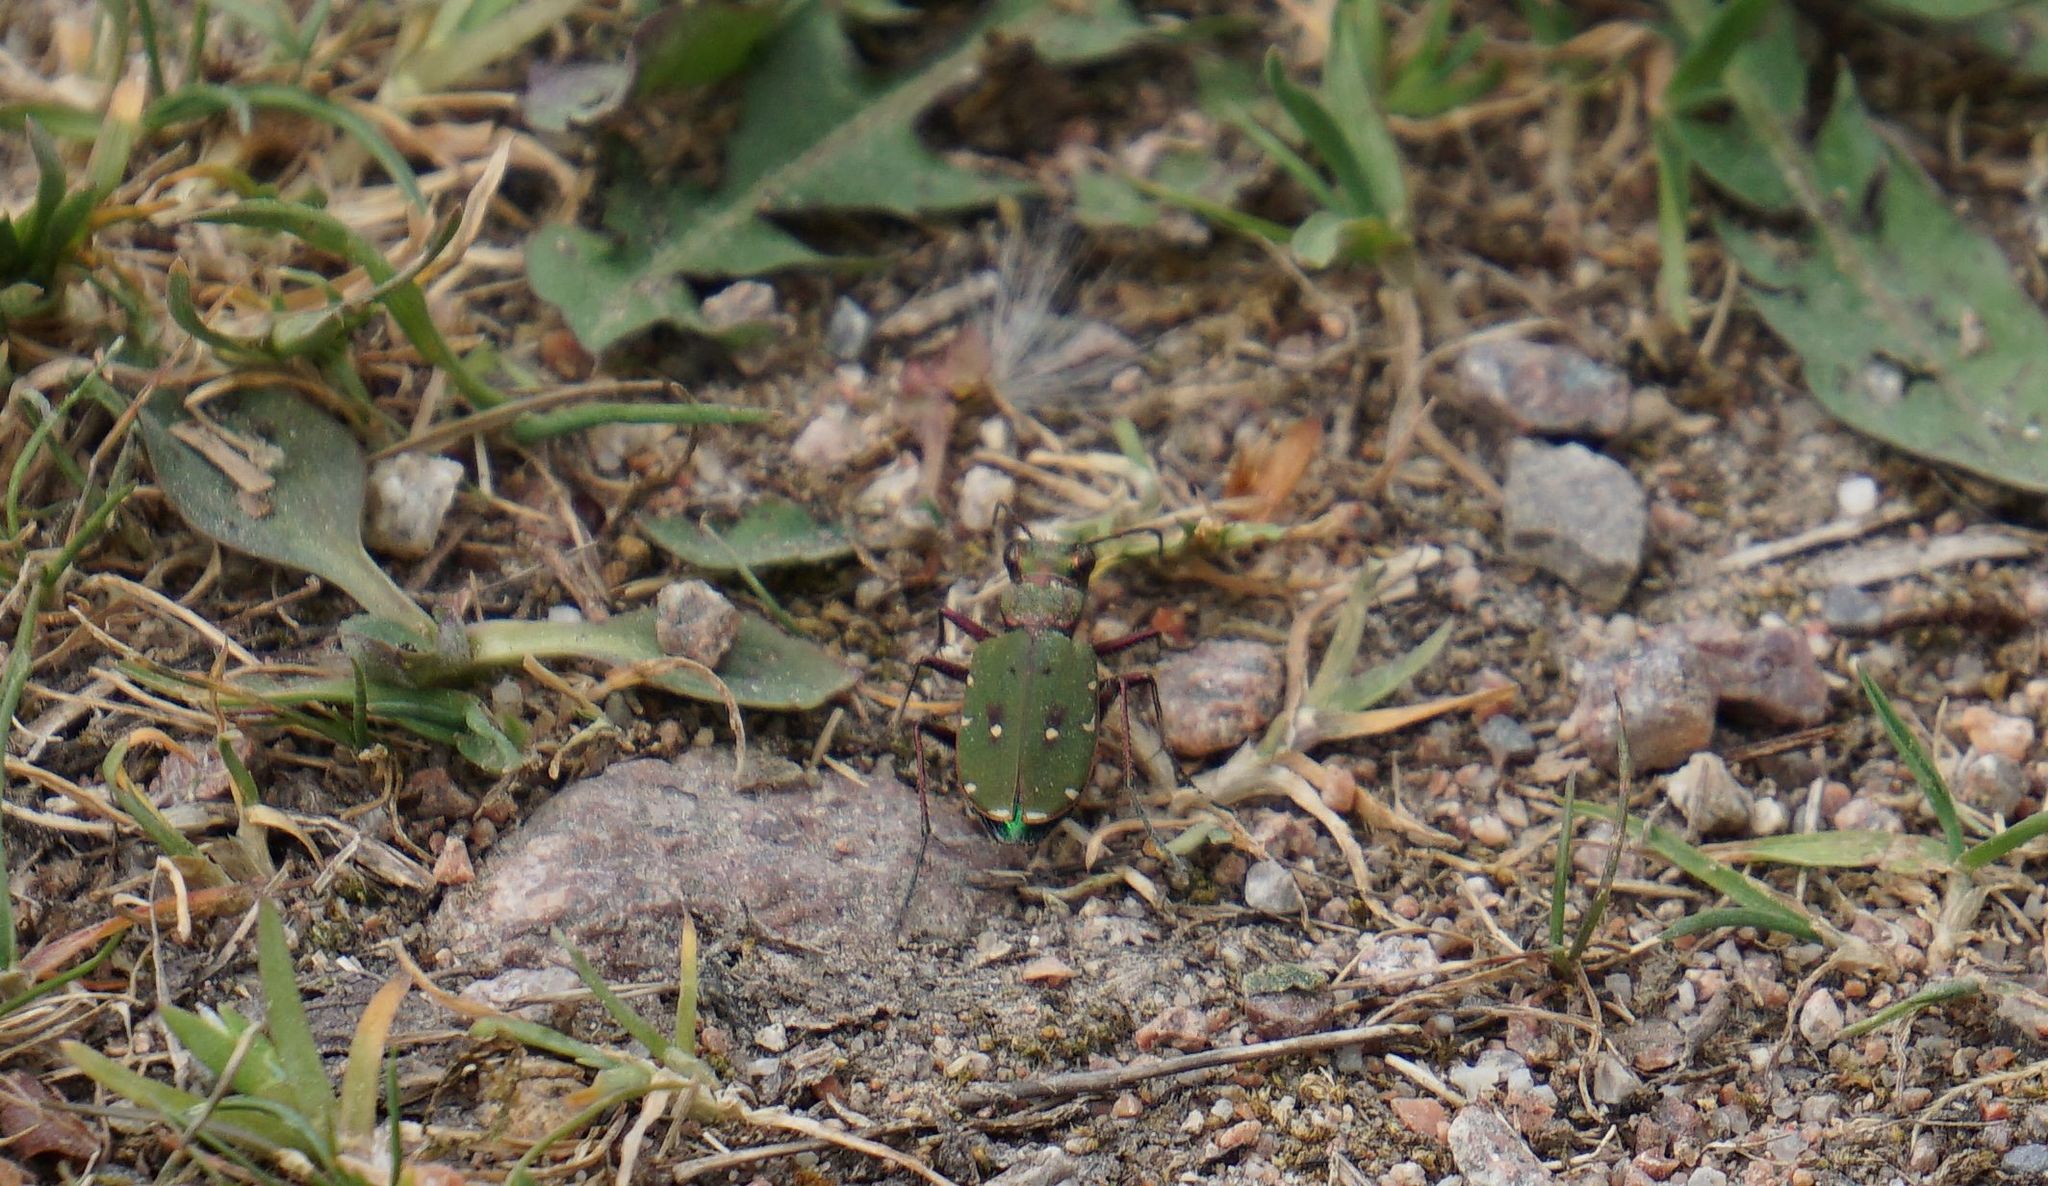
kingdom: Animalia
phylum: Arthropoda
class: Insecta
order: Coleoptera
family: Carabidae
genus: Cicindela
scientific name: Cicindela campestris
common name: Common tiger beetle
